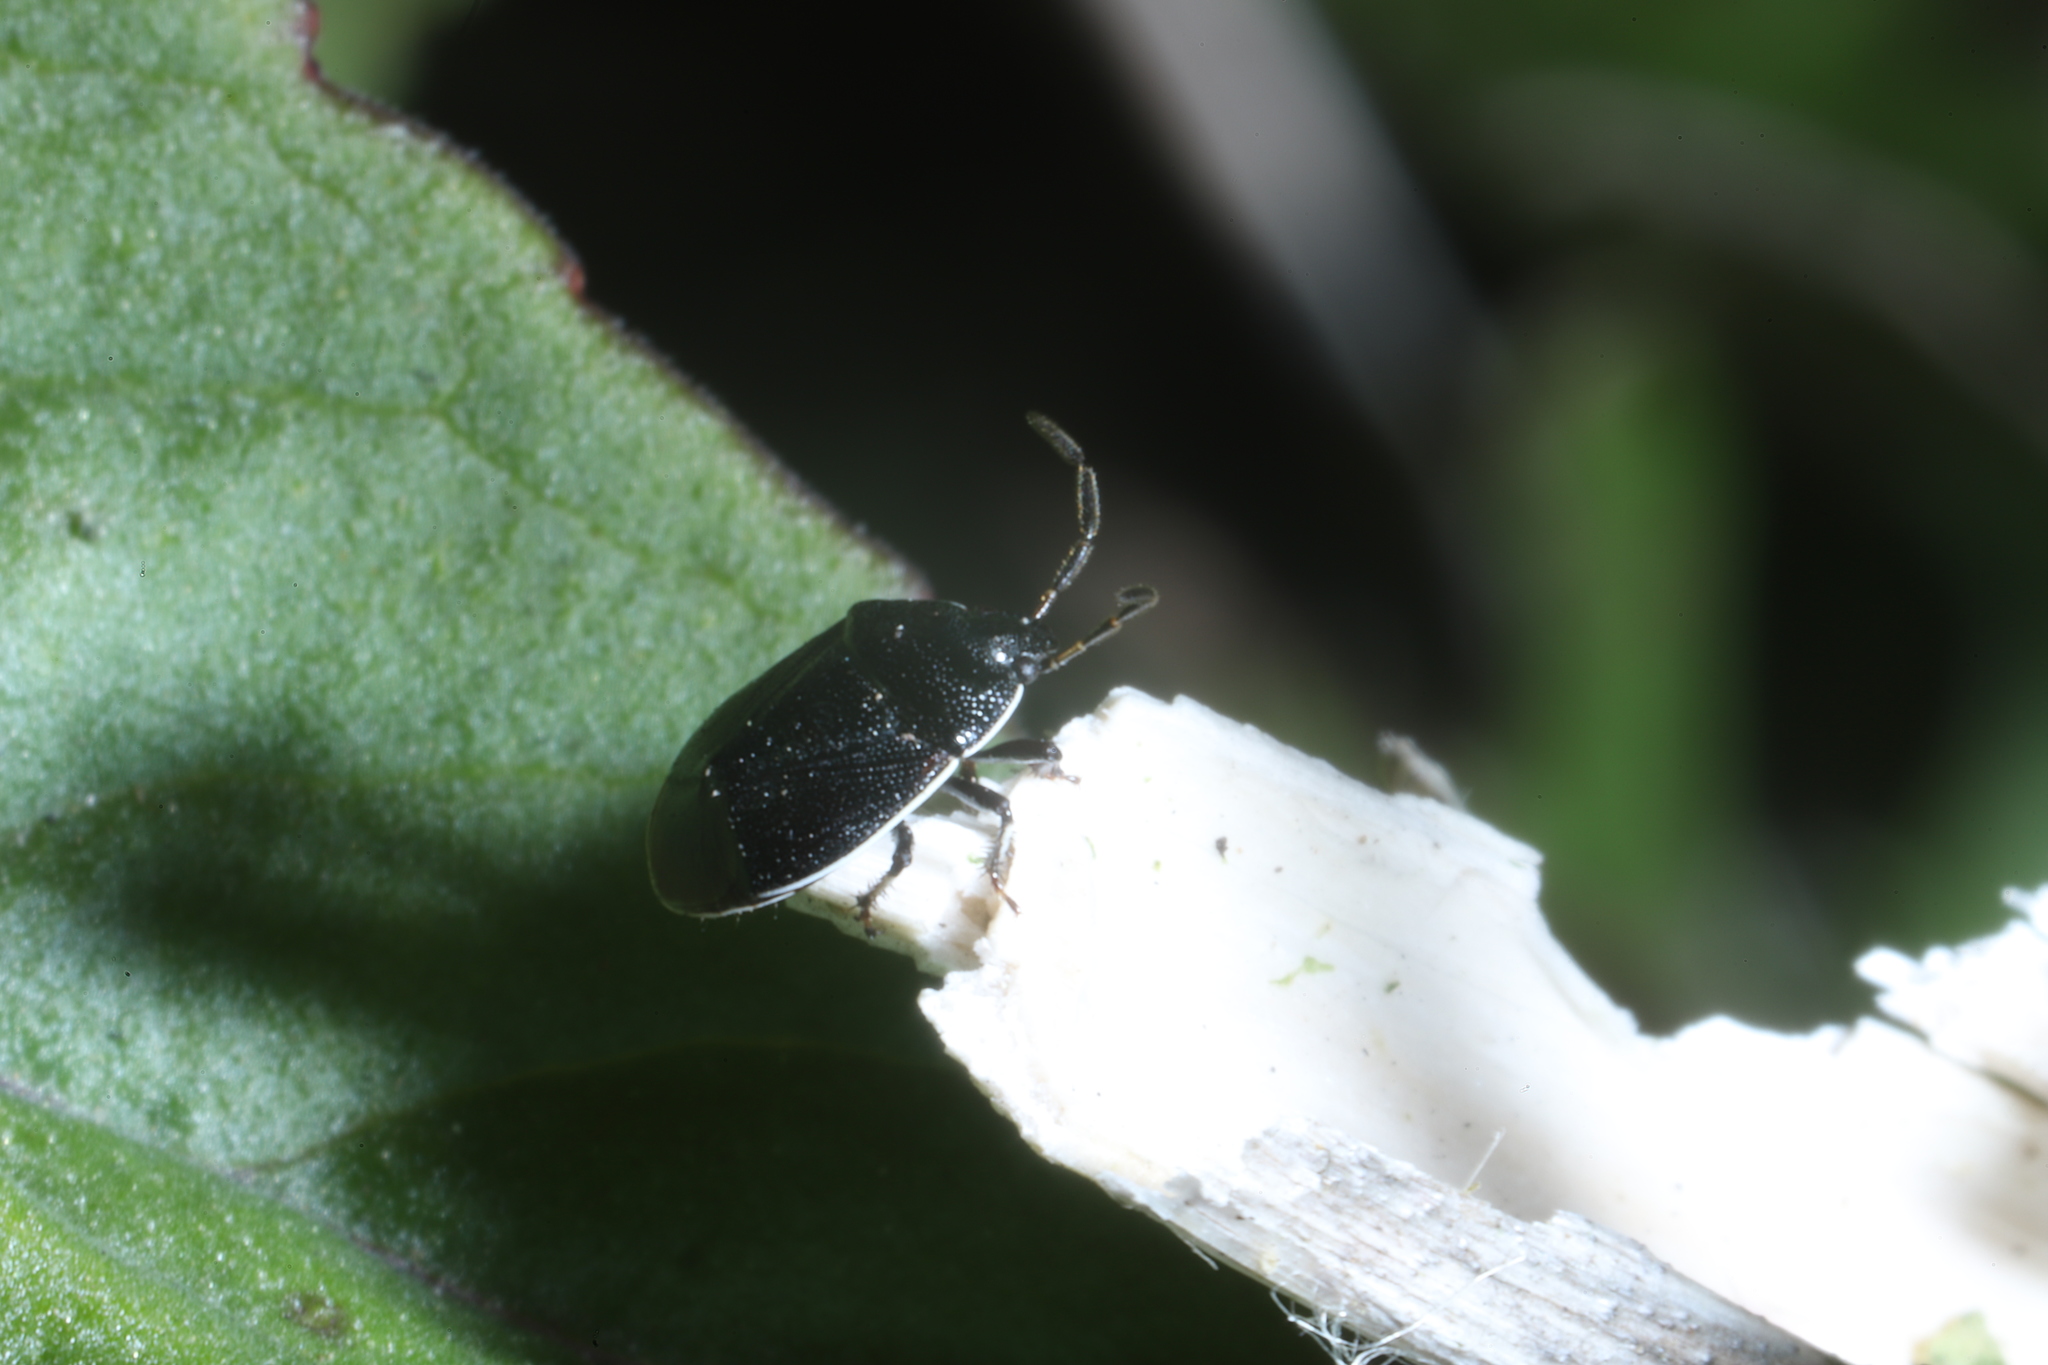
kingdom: Animalia
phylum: Arthropoda
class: Insecta
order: Hemiptera
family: Cydnidae
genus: Sehirus
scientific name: Sehirus cinctus
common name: White-margined burrower bug
